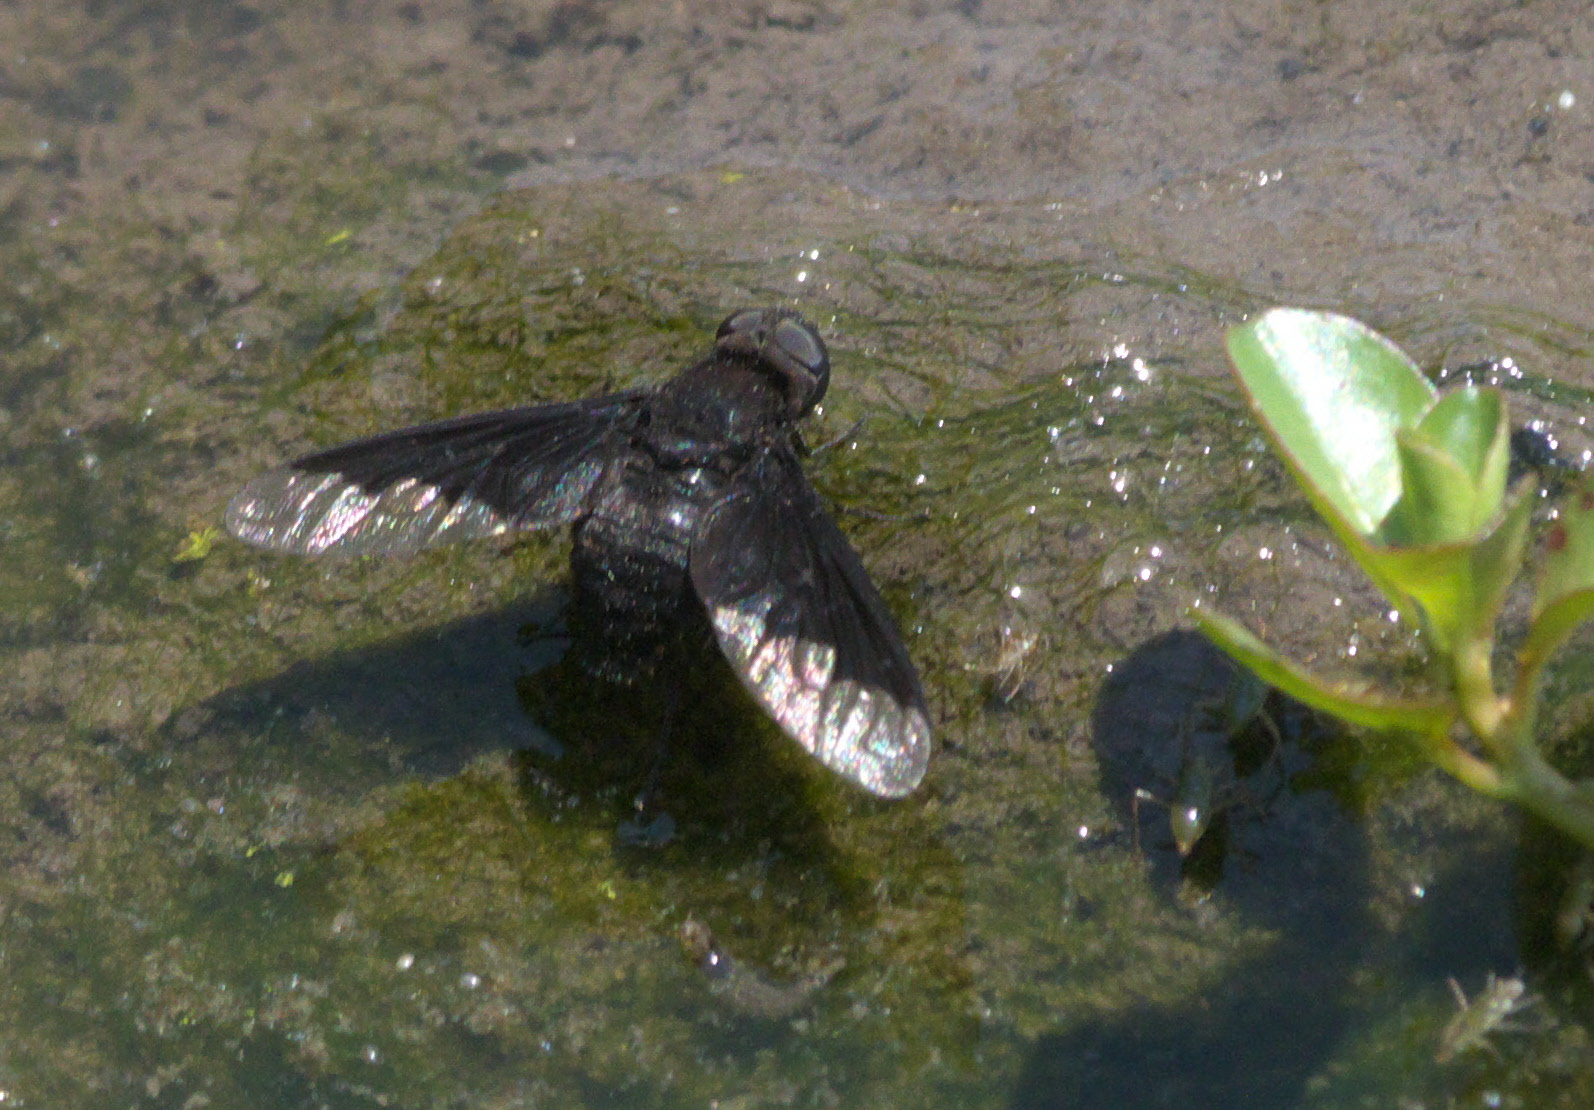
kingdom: Animalia
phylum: Arthropoda
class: Insecta
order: Diptera
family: Bombyliidae
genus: Anthrax
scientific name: Anthrax analis
